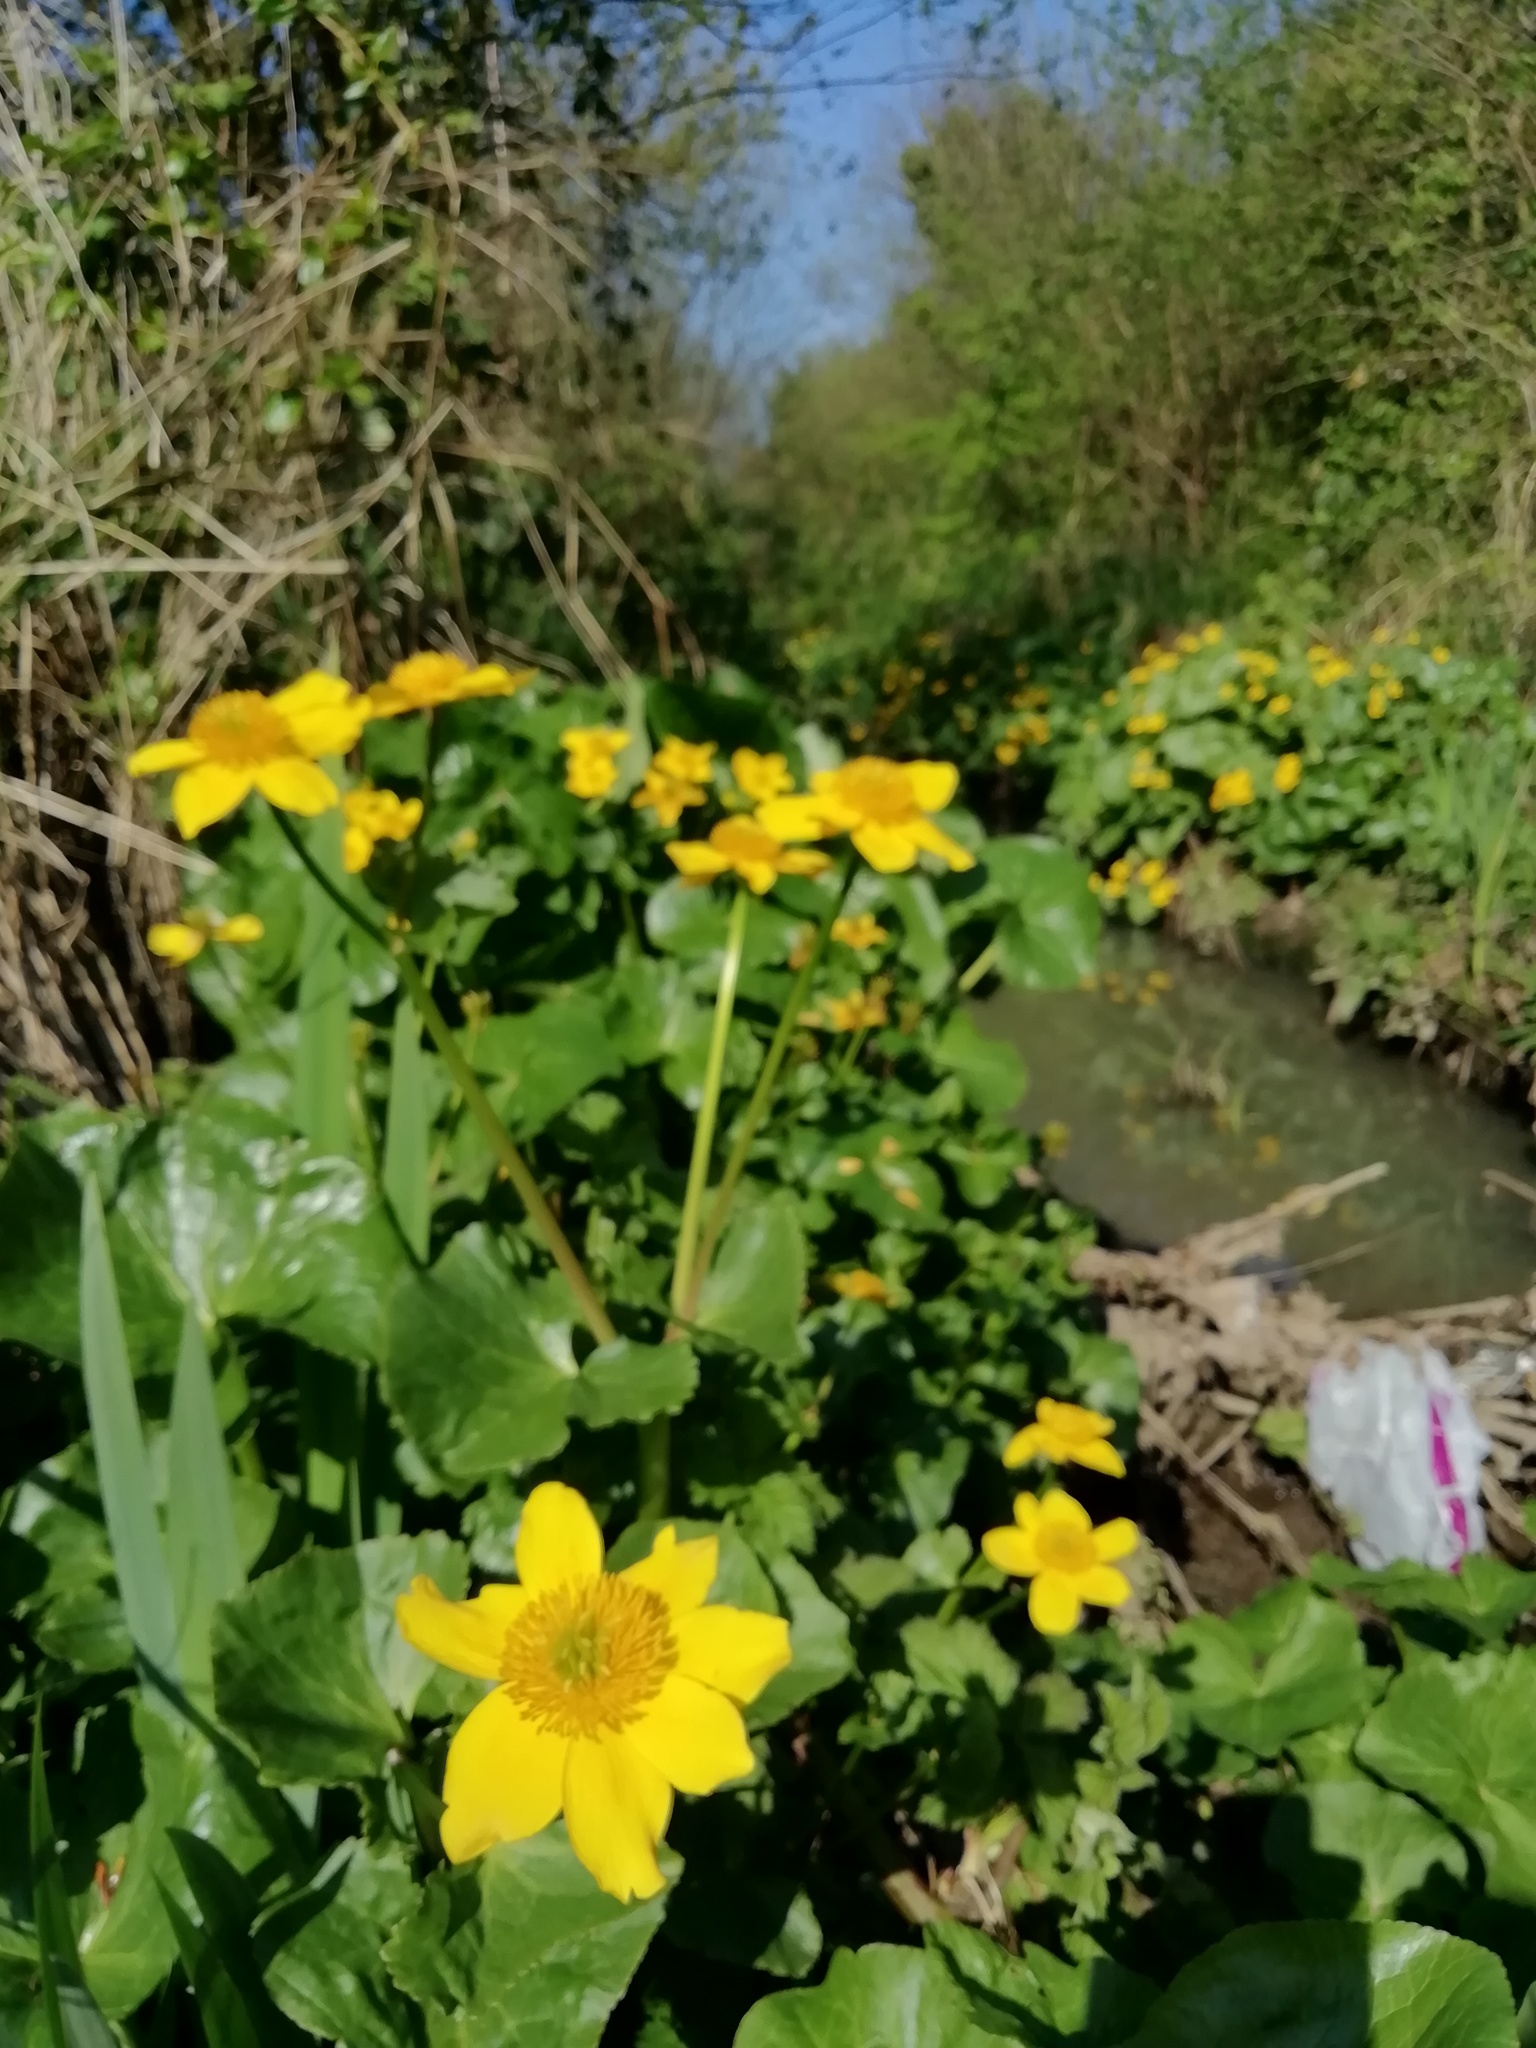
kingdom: Plantae
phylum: Tracheophyta
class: Magnoliopsida
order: Ranunculales
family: Ranunculaceae
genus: Caltha
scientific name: Caltha palustris
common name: Marsh marigold
